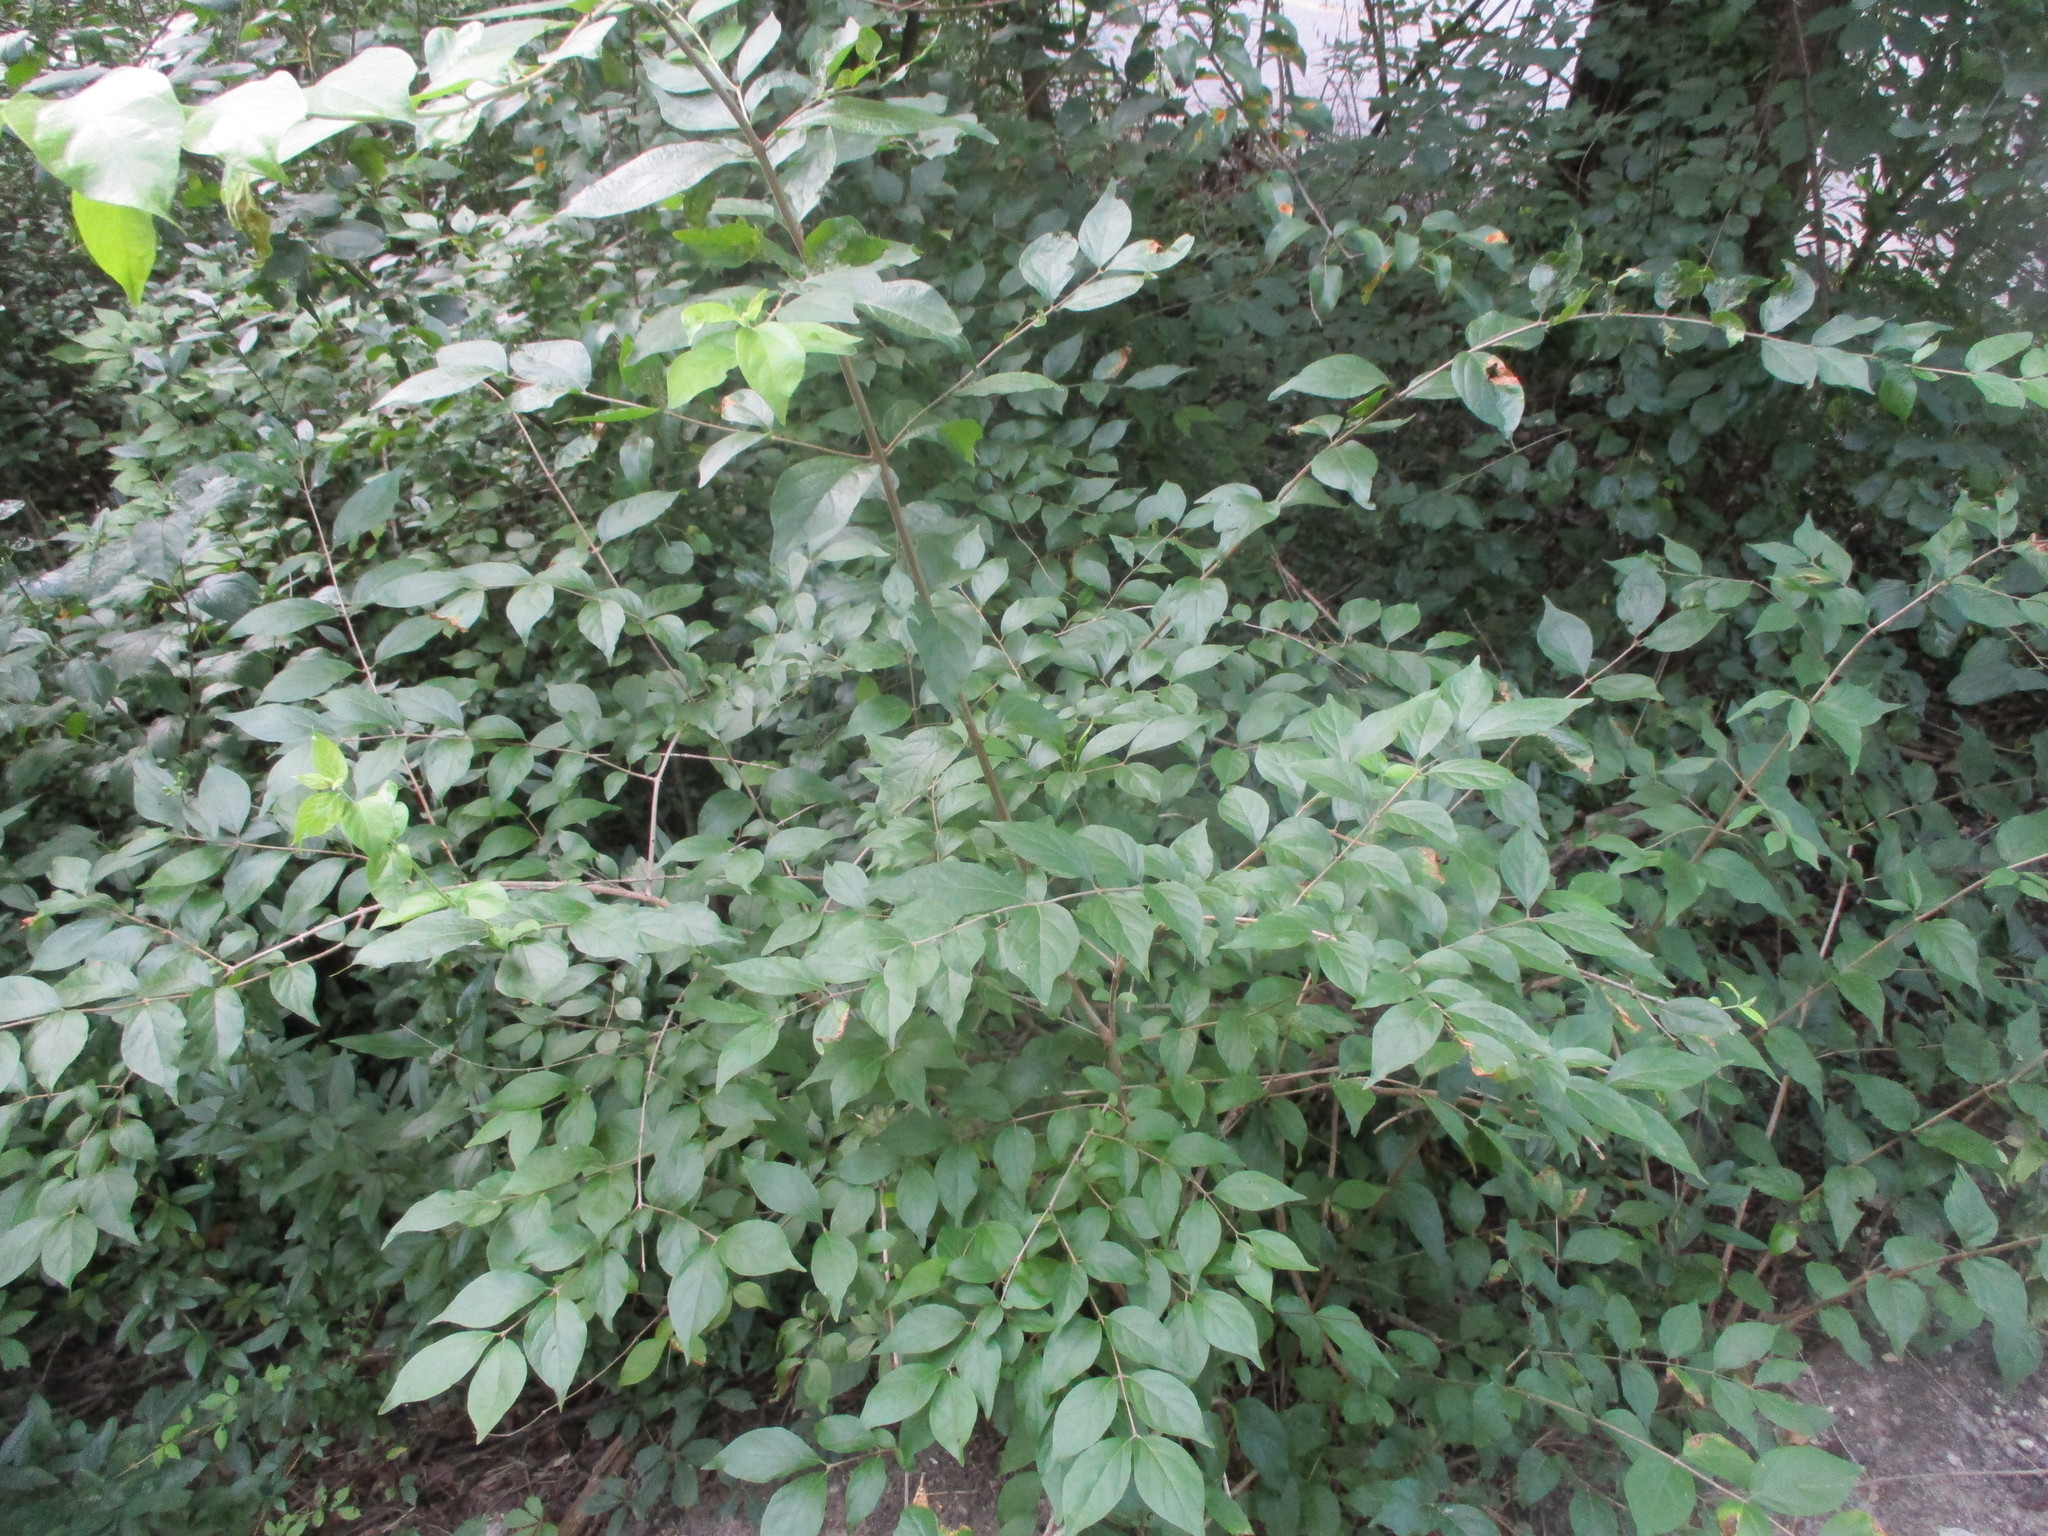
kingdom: Plantae
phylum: Tracheophyta
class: Magnoliopsida
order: Dipsacales
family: Caprifoliaceae
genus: Lonicera
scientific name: Lonicera maackii
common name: Amur honeysuckle
